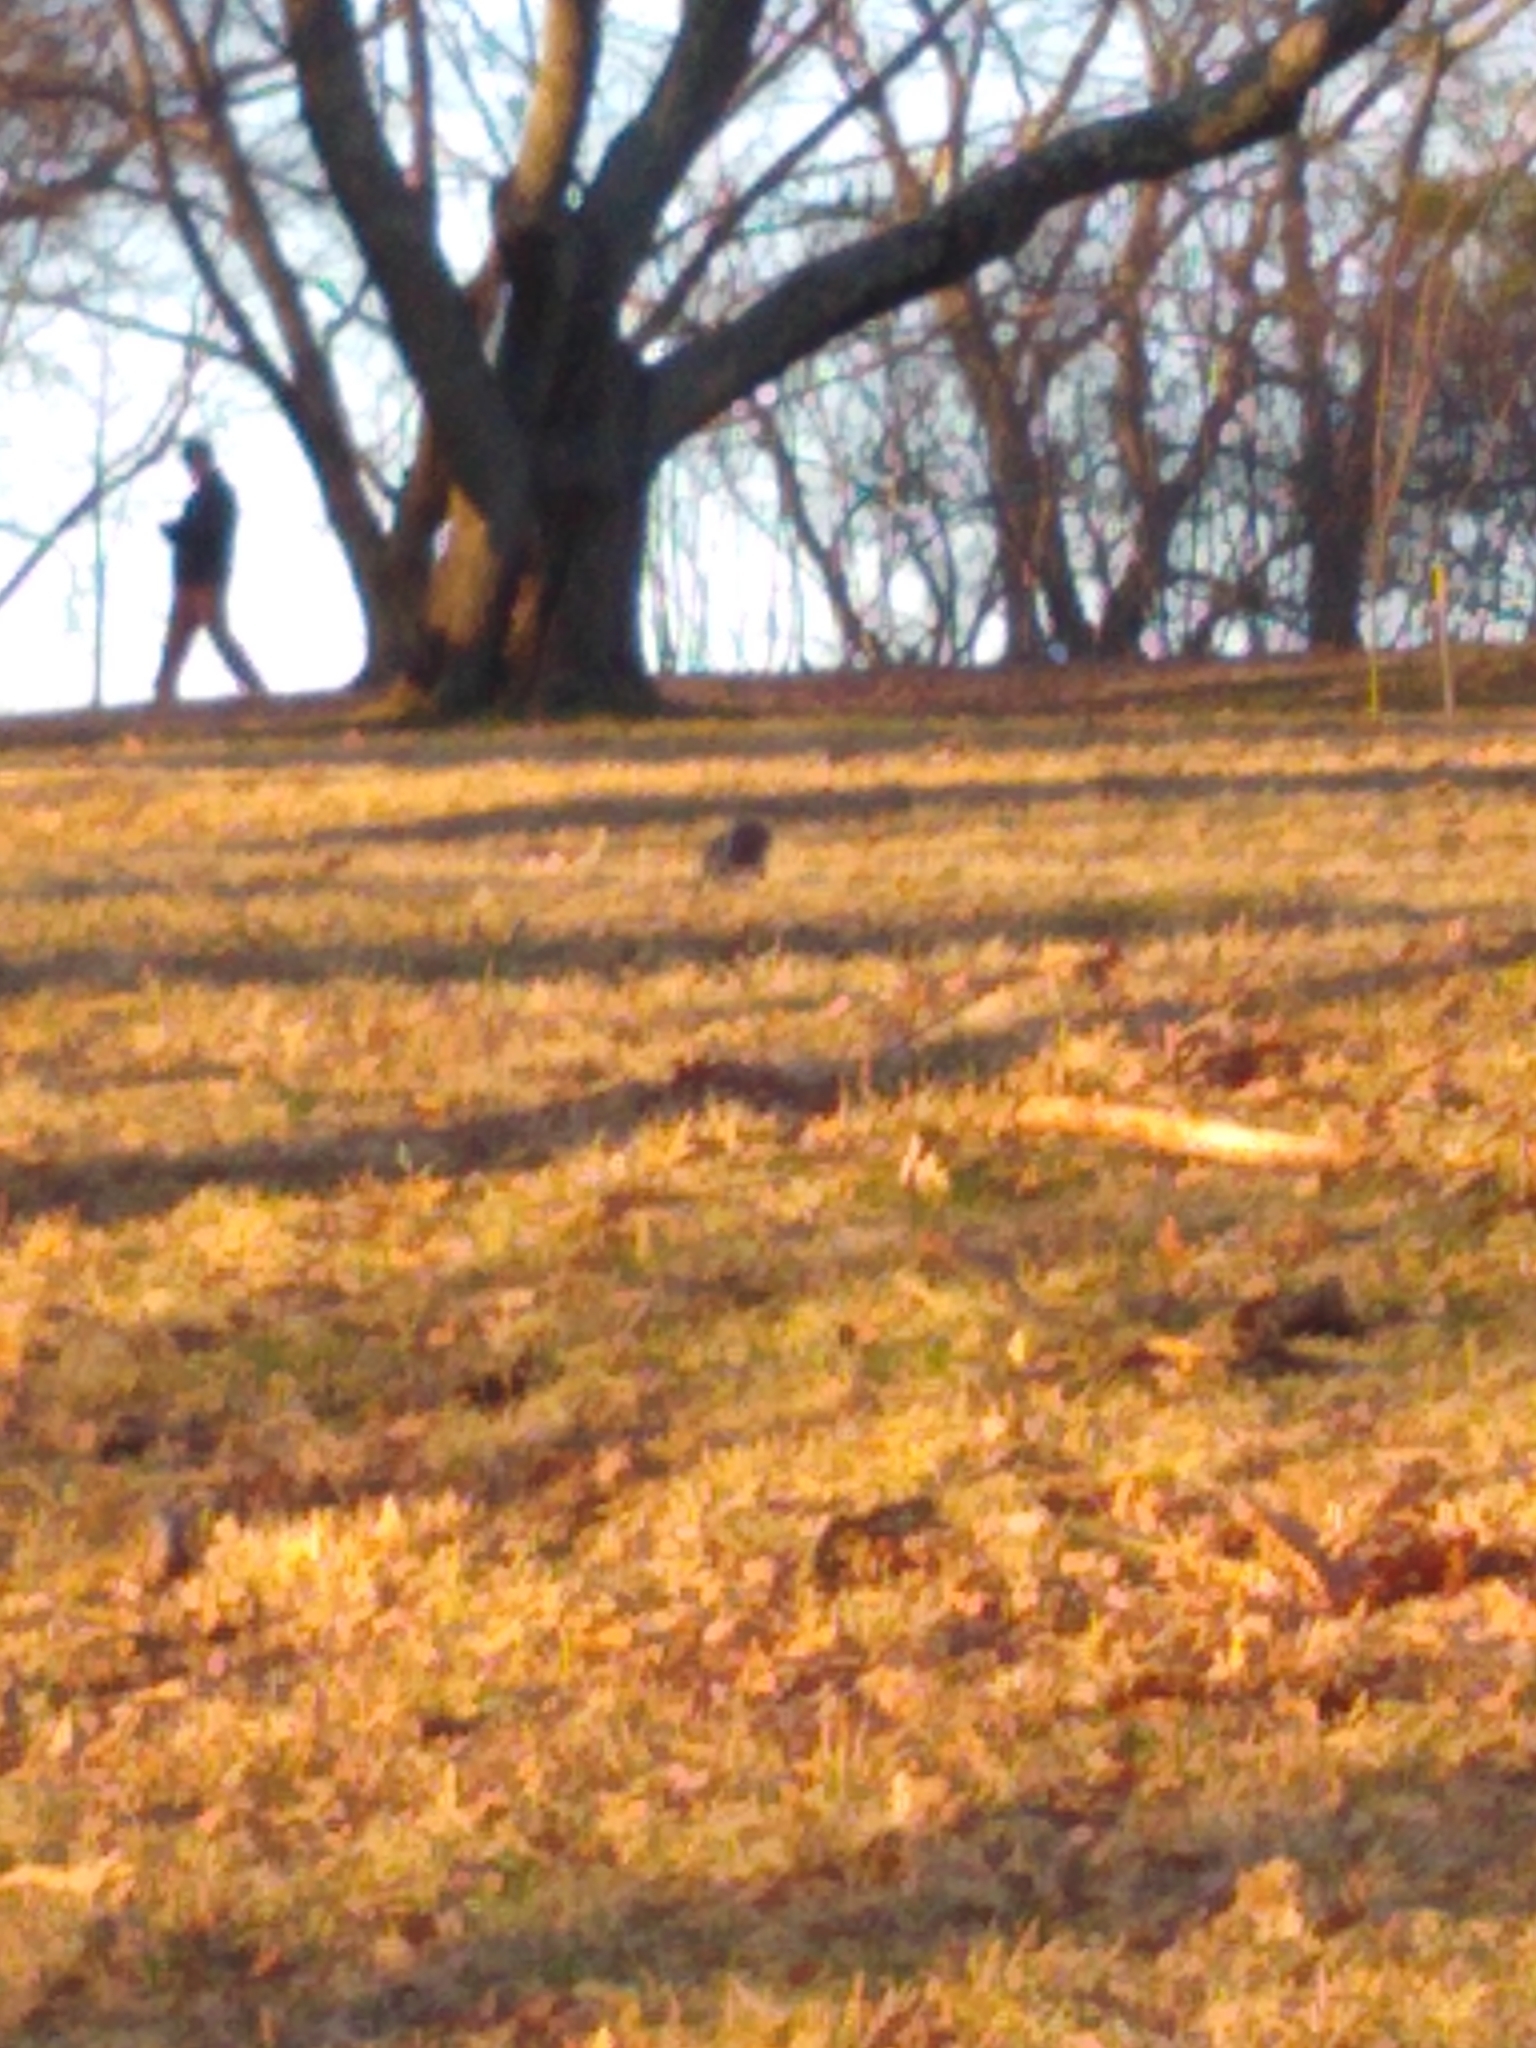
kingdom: Animalia
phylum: Chordata
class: Mammalia
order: Rodentia
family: Sciuridae
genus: Sciurus
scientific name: Sciurus carolinensis
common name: Eastern gray squirrel
